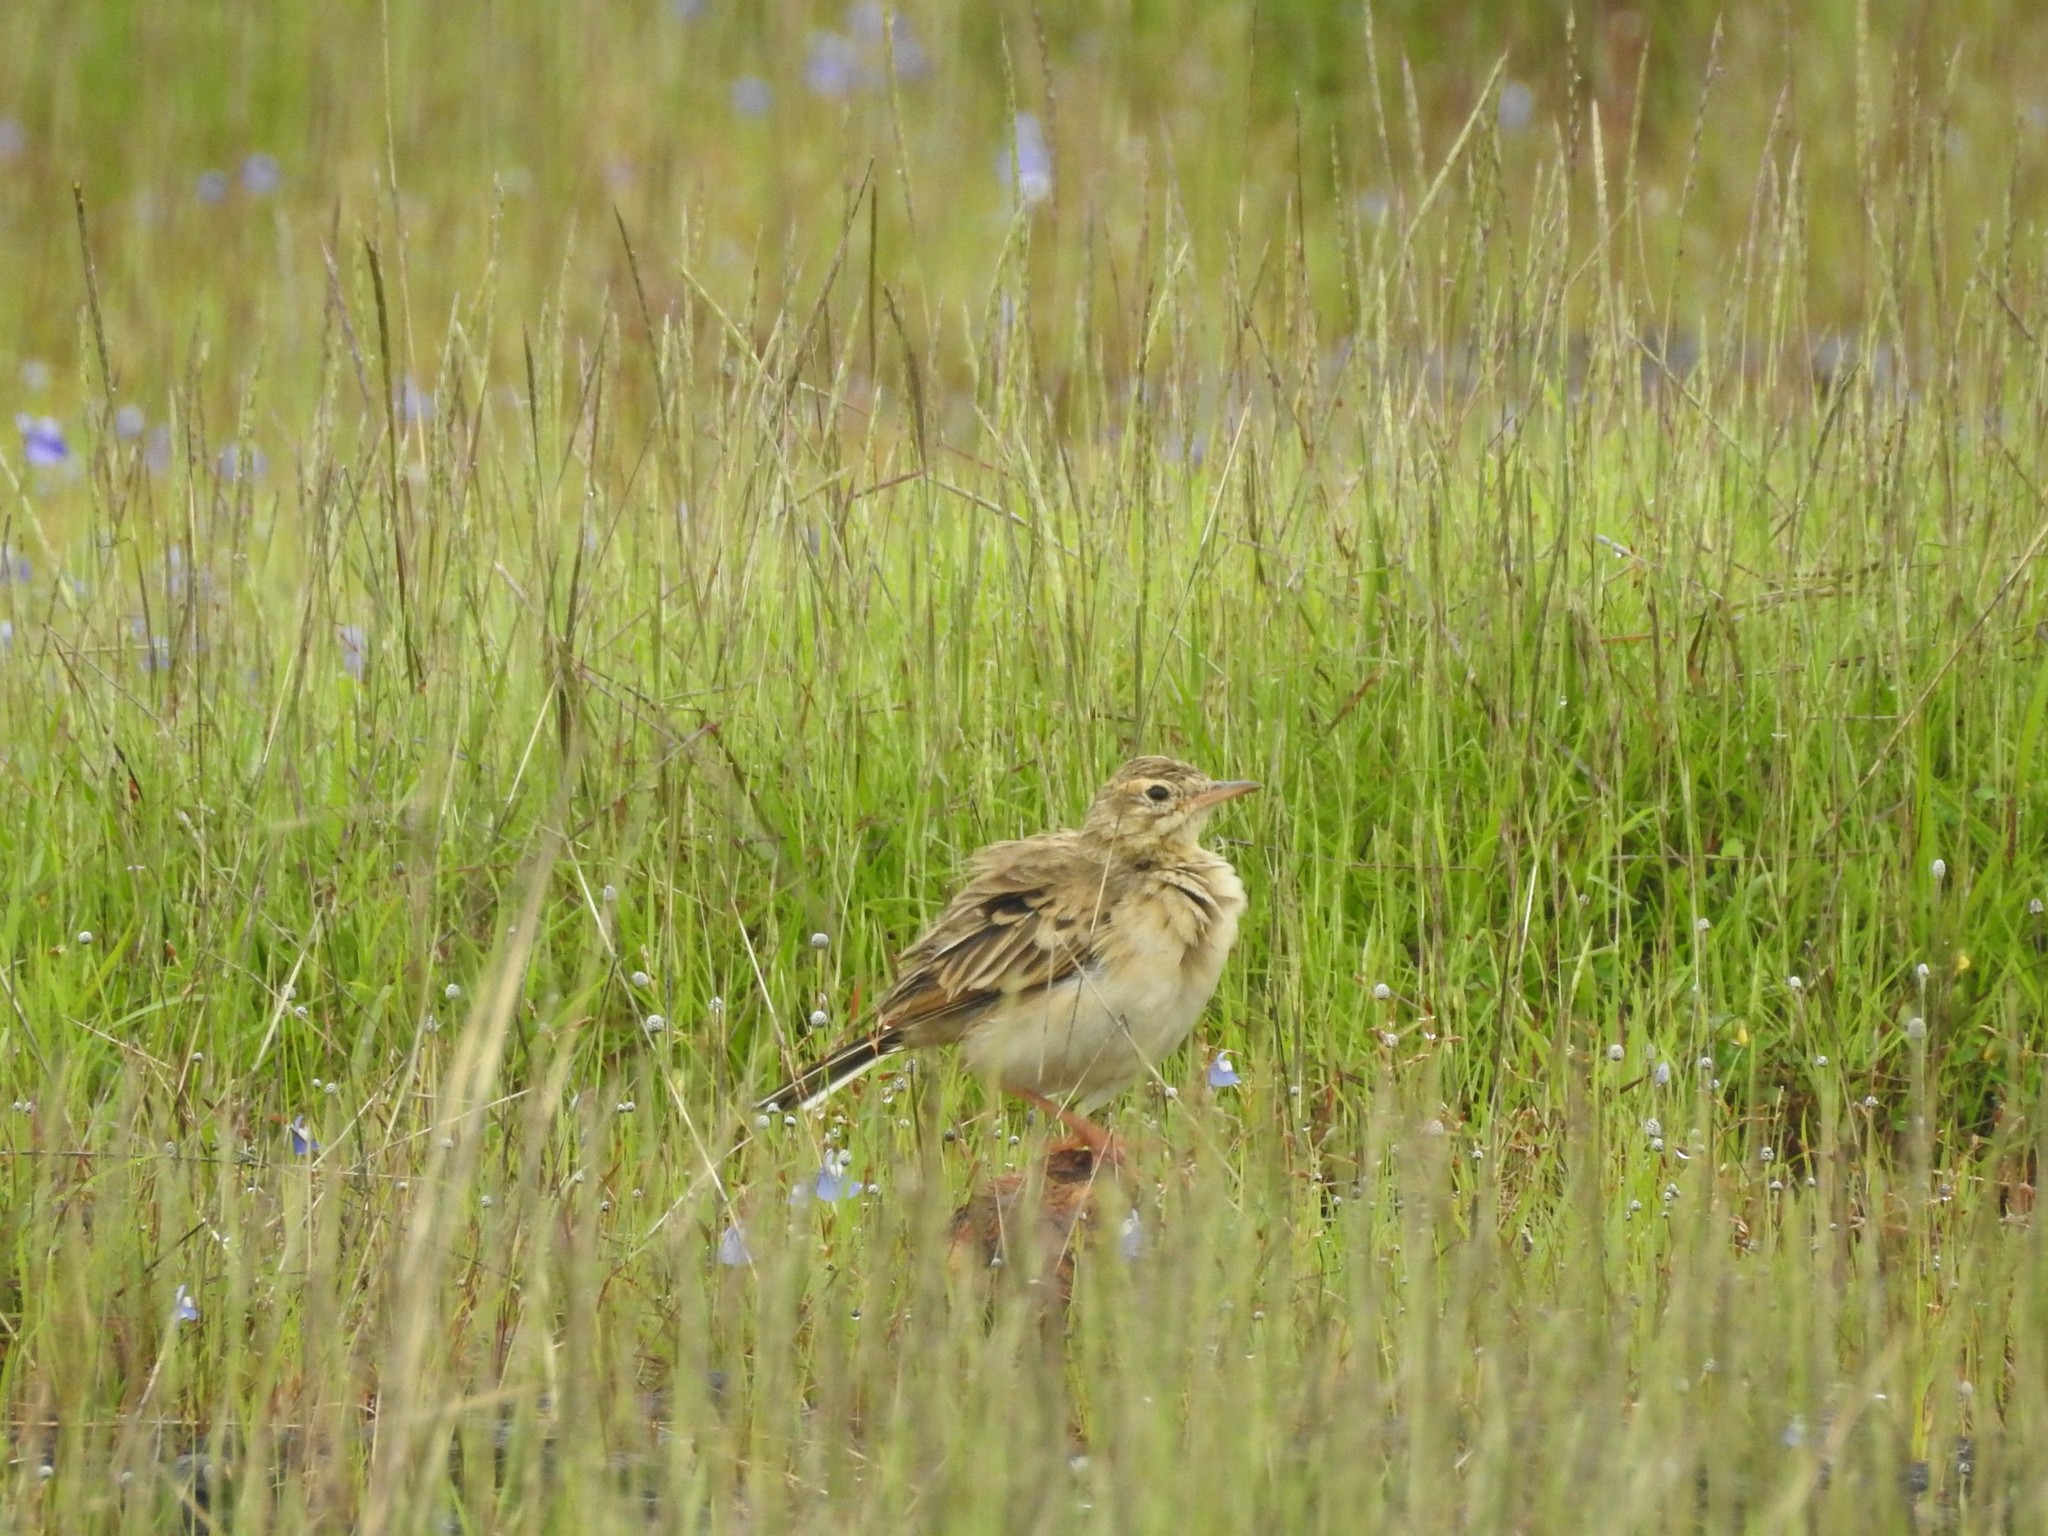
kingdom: Animalia
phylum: Chordata
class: Aves
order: Passeriformes
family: Alaudidae
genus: Galerida
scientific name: Galerida malabarica
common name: Malabar lark
